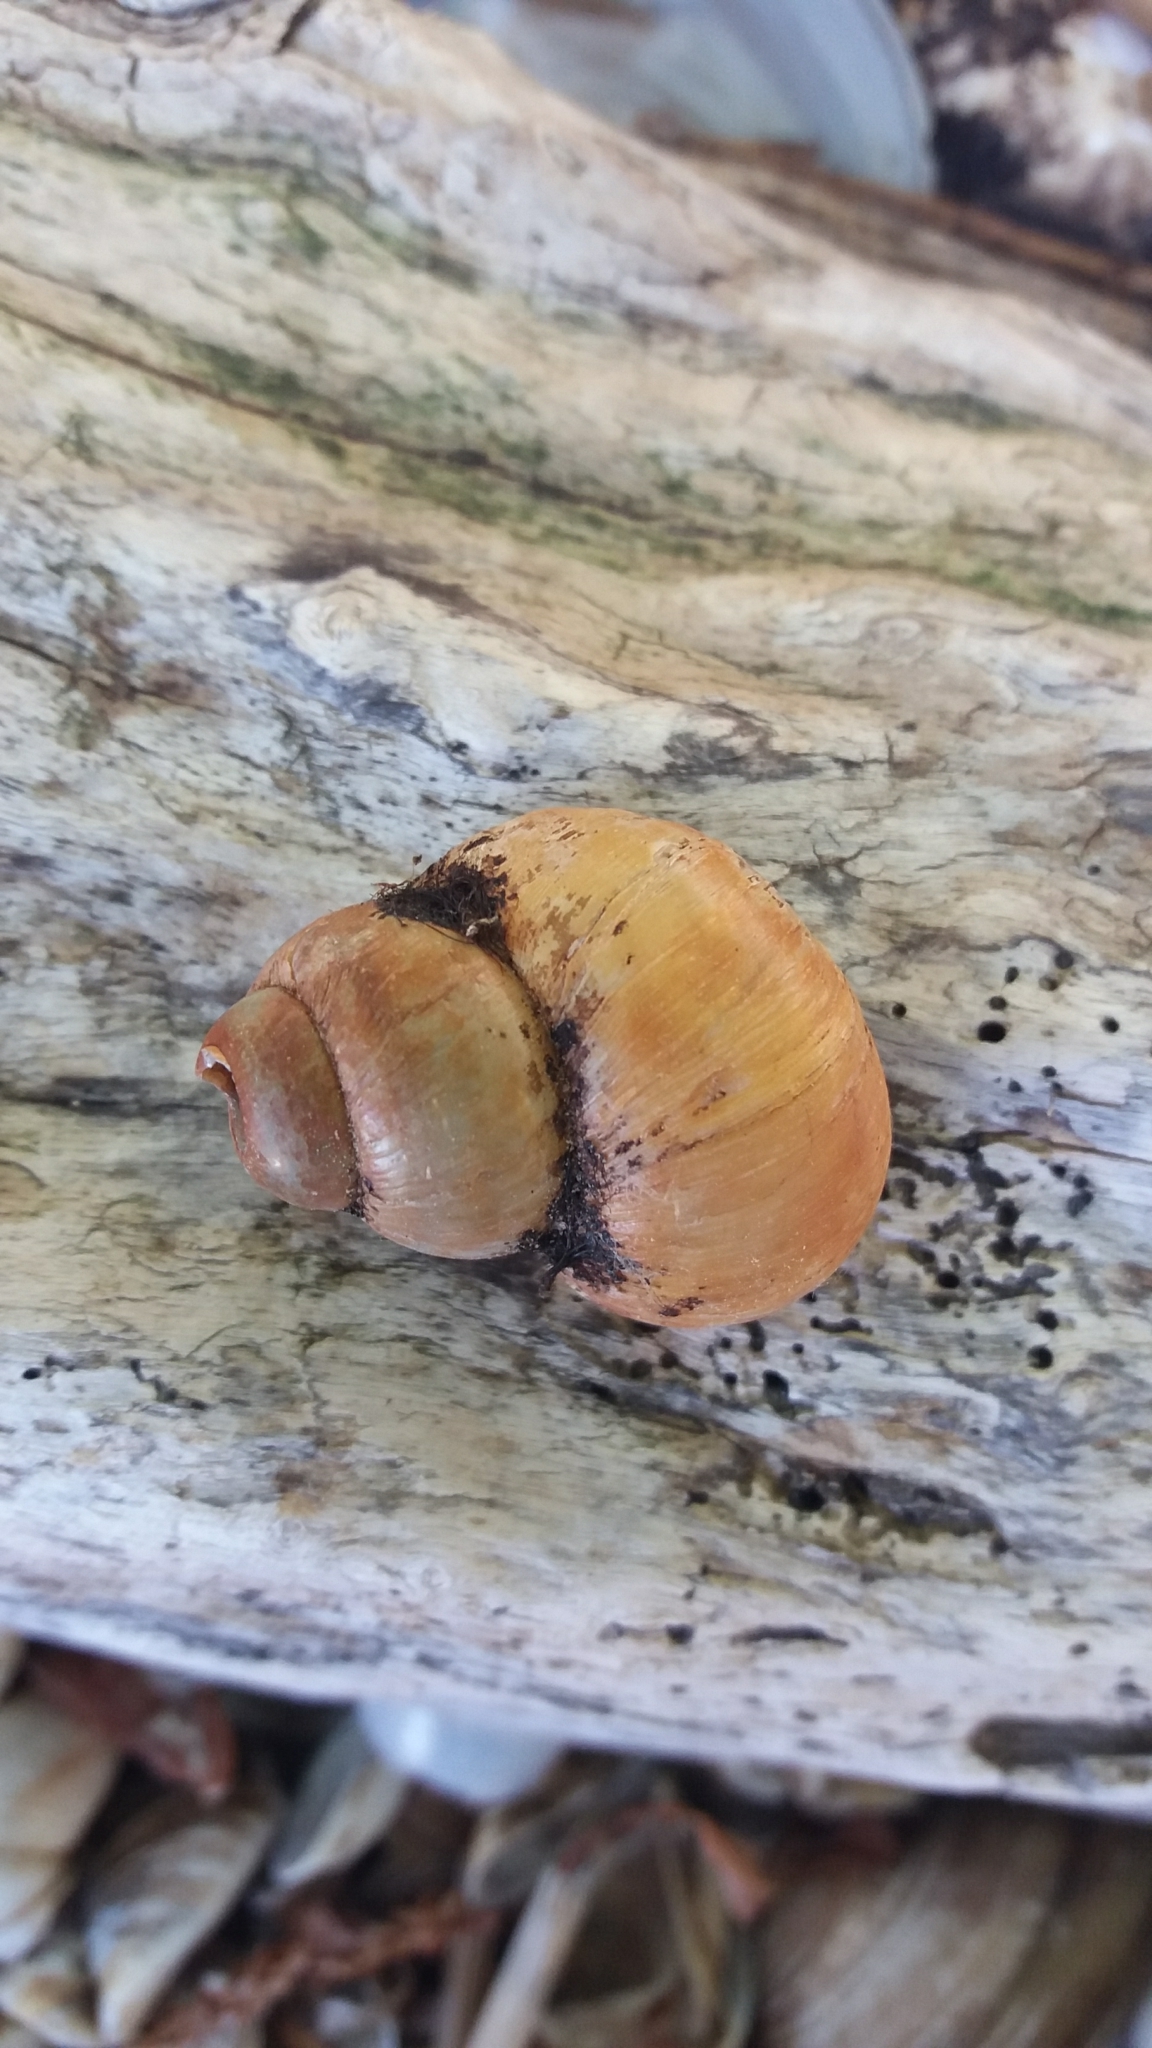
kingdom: Animalia
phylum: Mollusca
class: Gastropoda
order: Architaenioglossa
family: Viviparidae
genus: Viviparus
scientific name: Viviparus viviparus
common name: River snail
